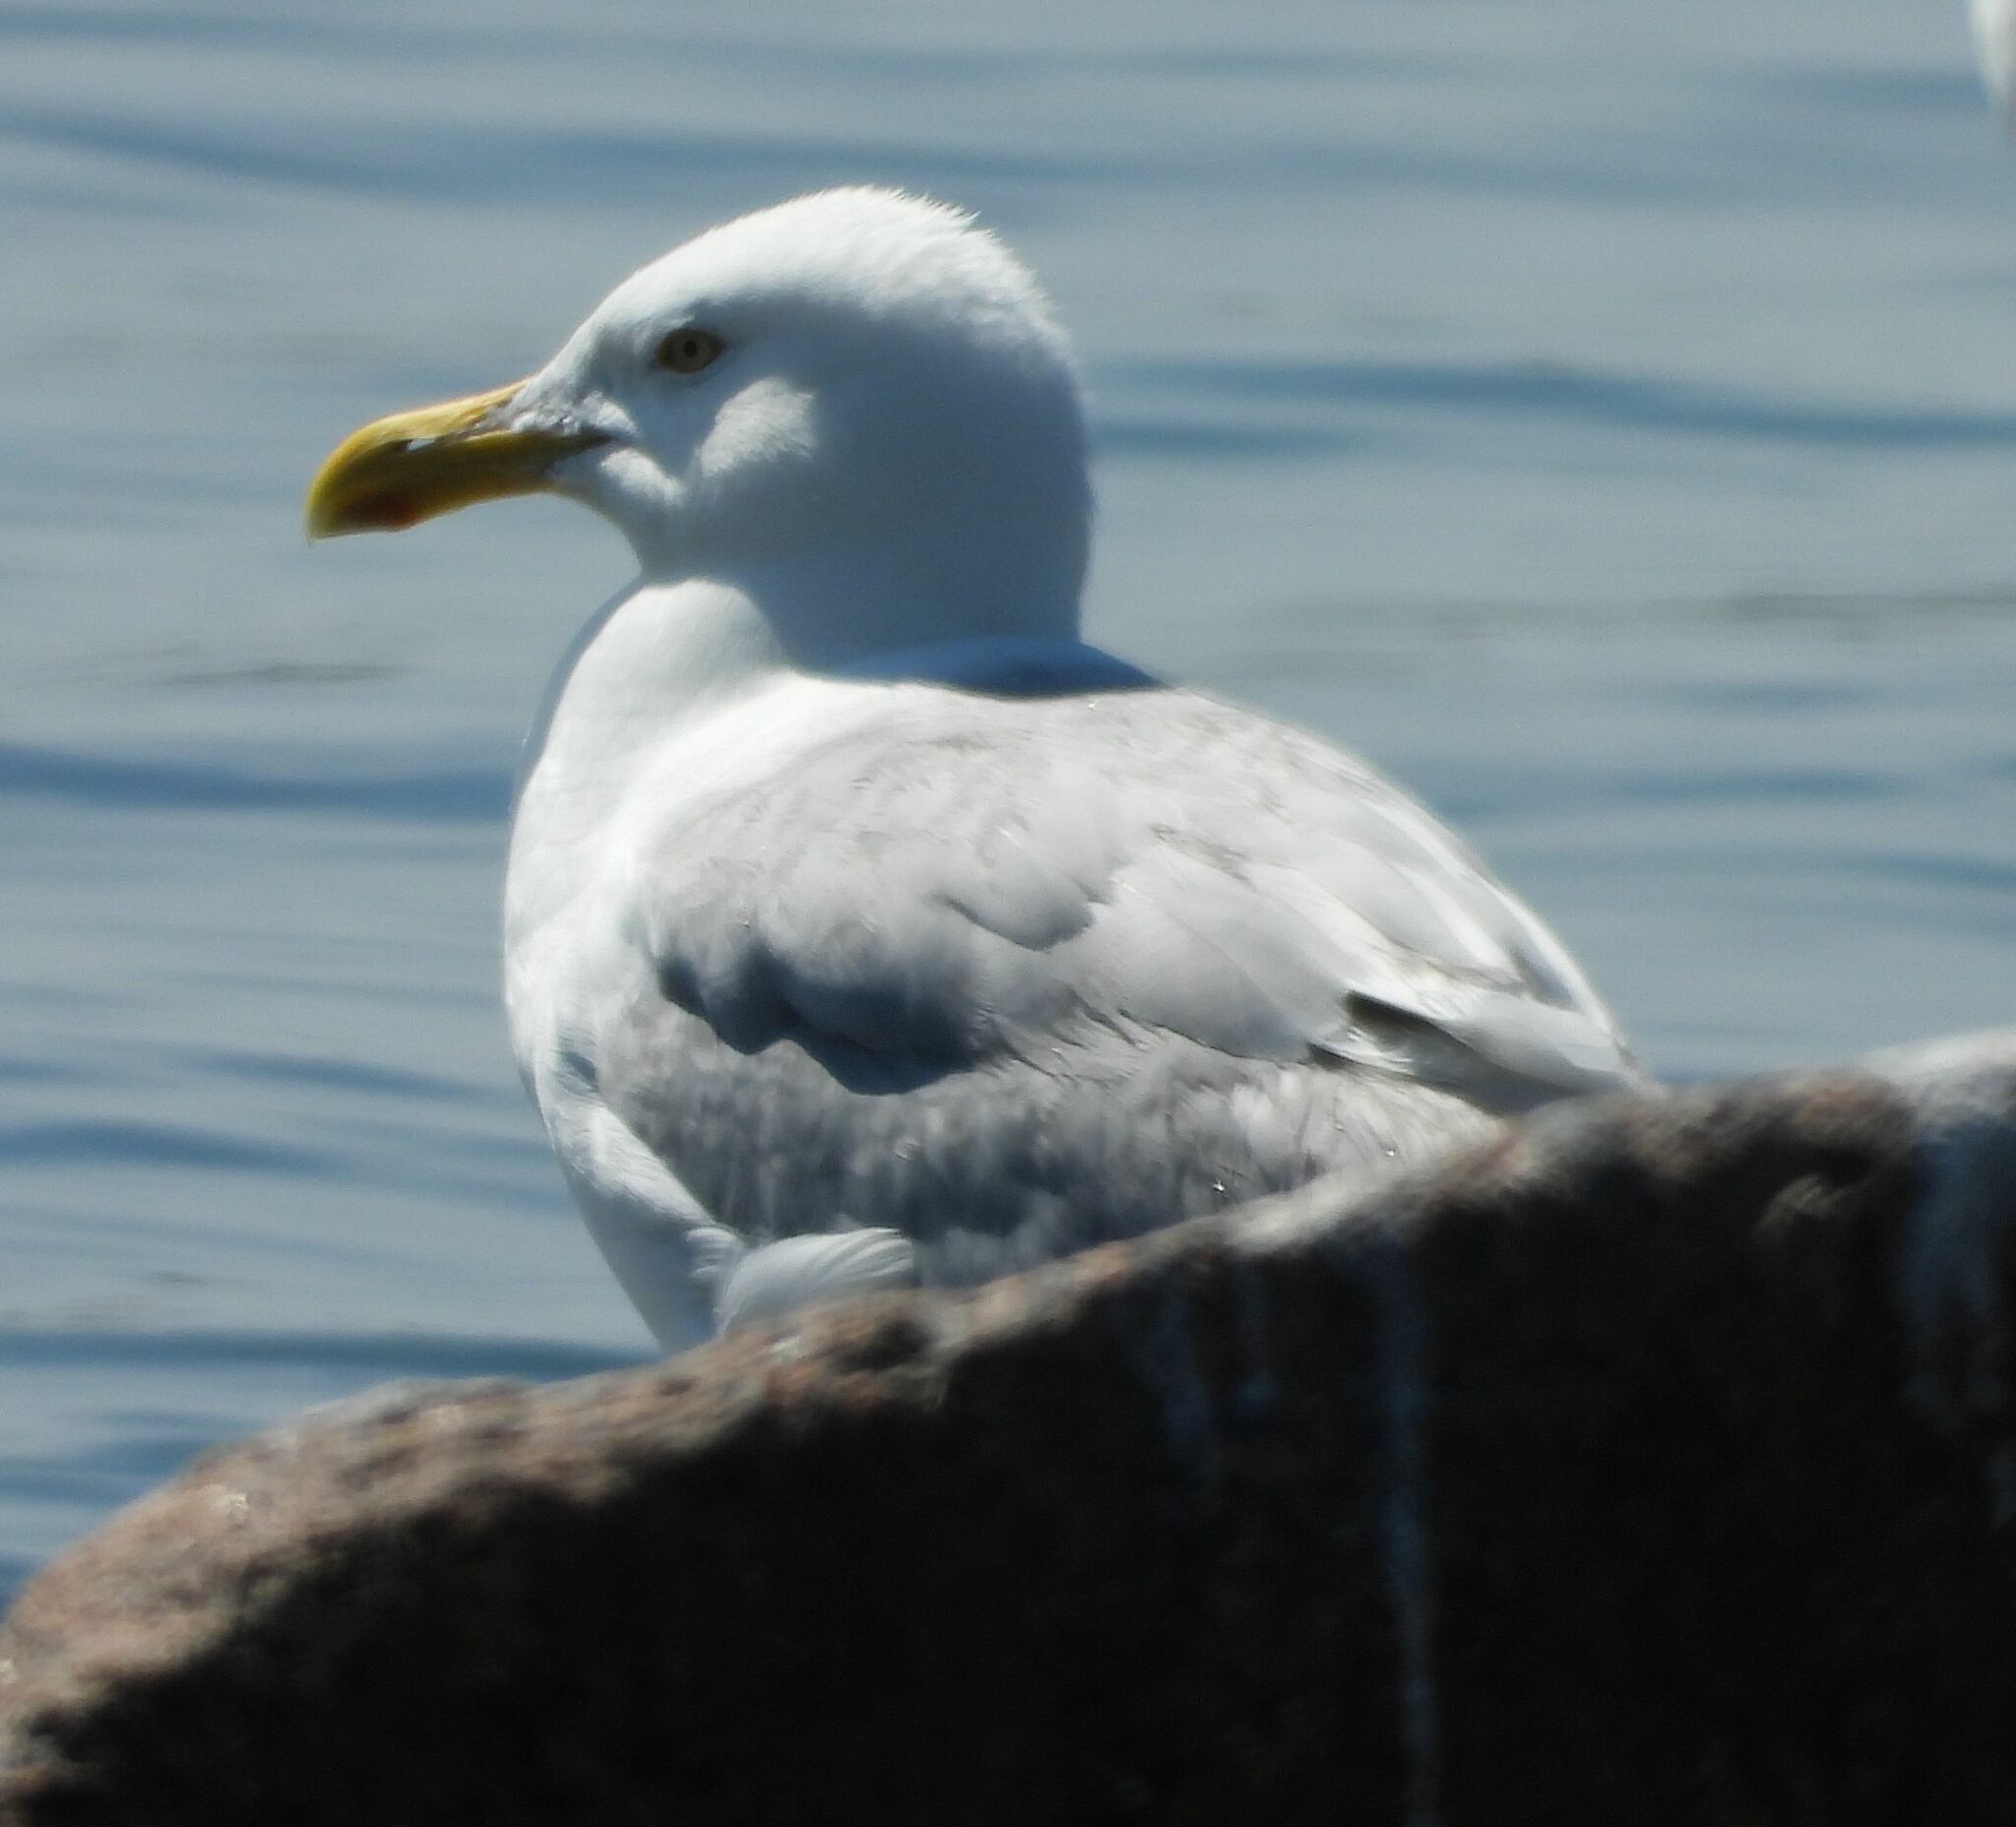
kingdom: Animalia
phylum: Chordata
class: Aves
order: Charadriiformes
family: Laridae
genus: Larus
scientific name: Larus argentatus
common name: Herring gull
